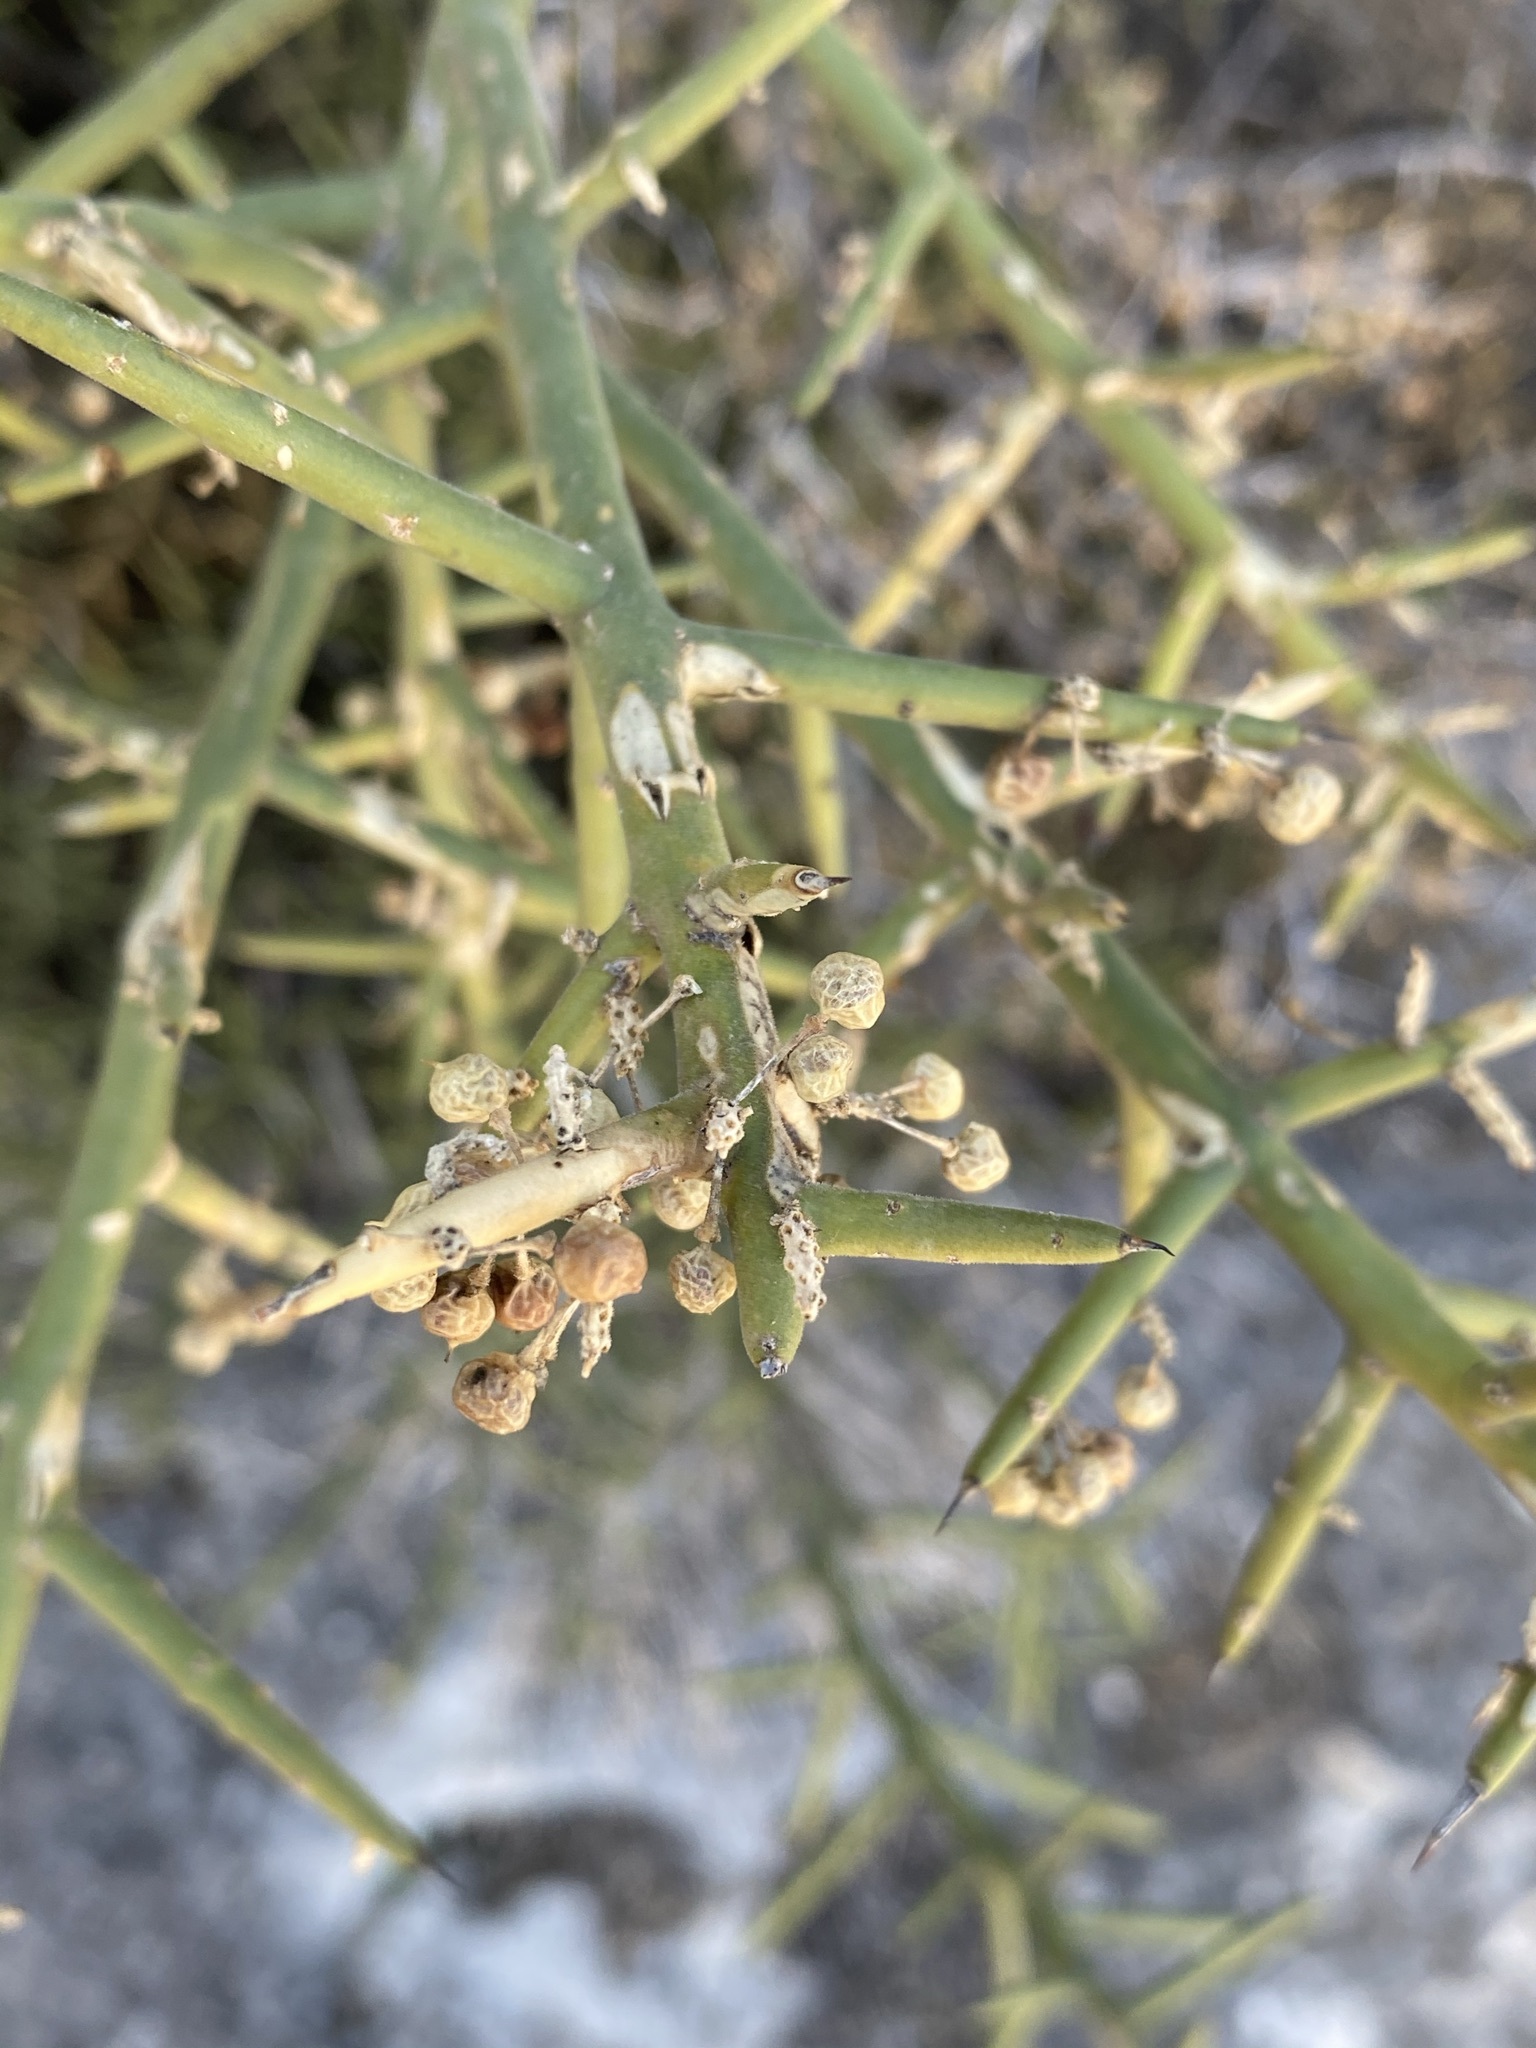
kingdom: Plantae
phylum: Tracheophyta
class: Magnoliopsida
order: Brassicales
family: Koeberliniaceae
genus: Koeberlinia
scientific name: Koeberlinia spinosa
